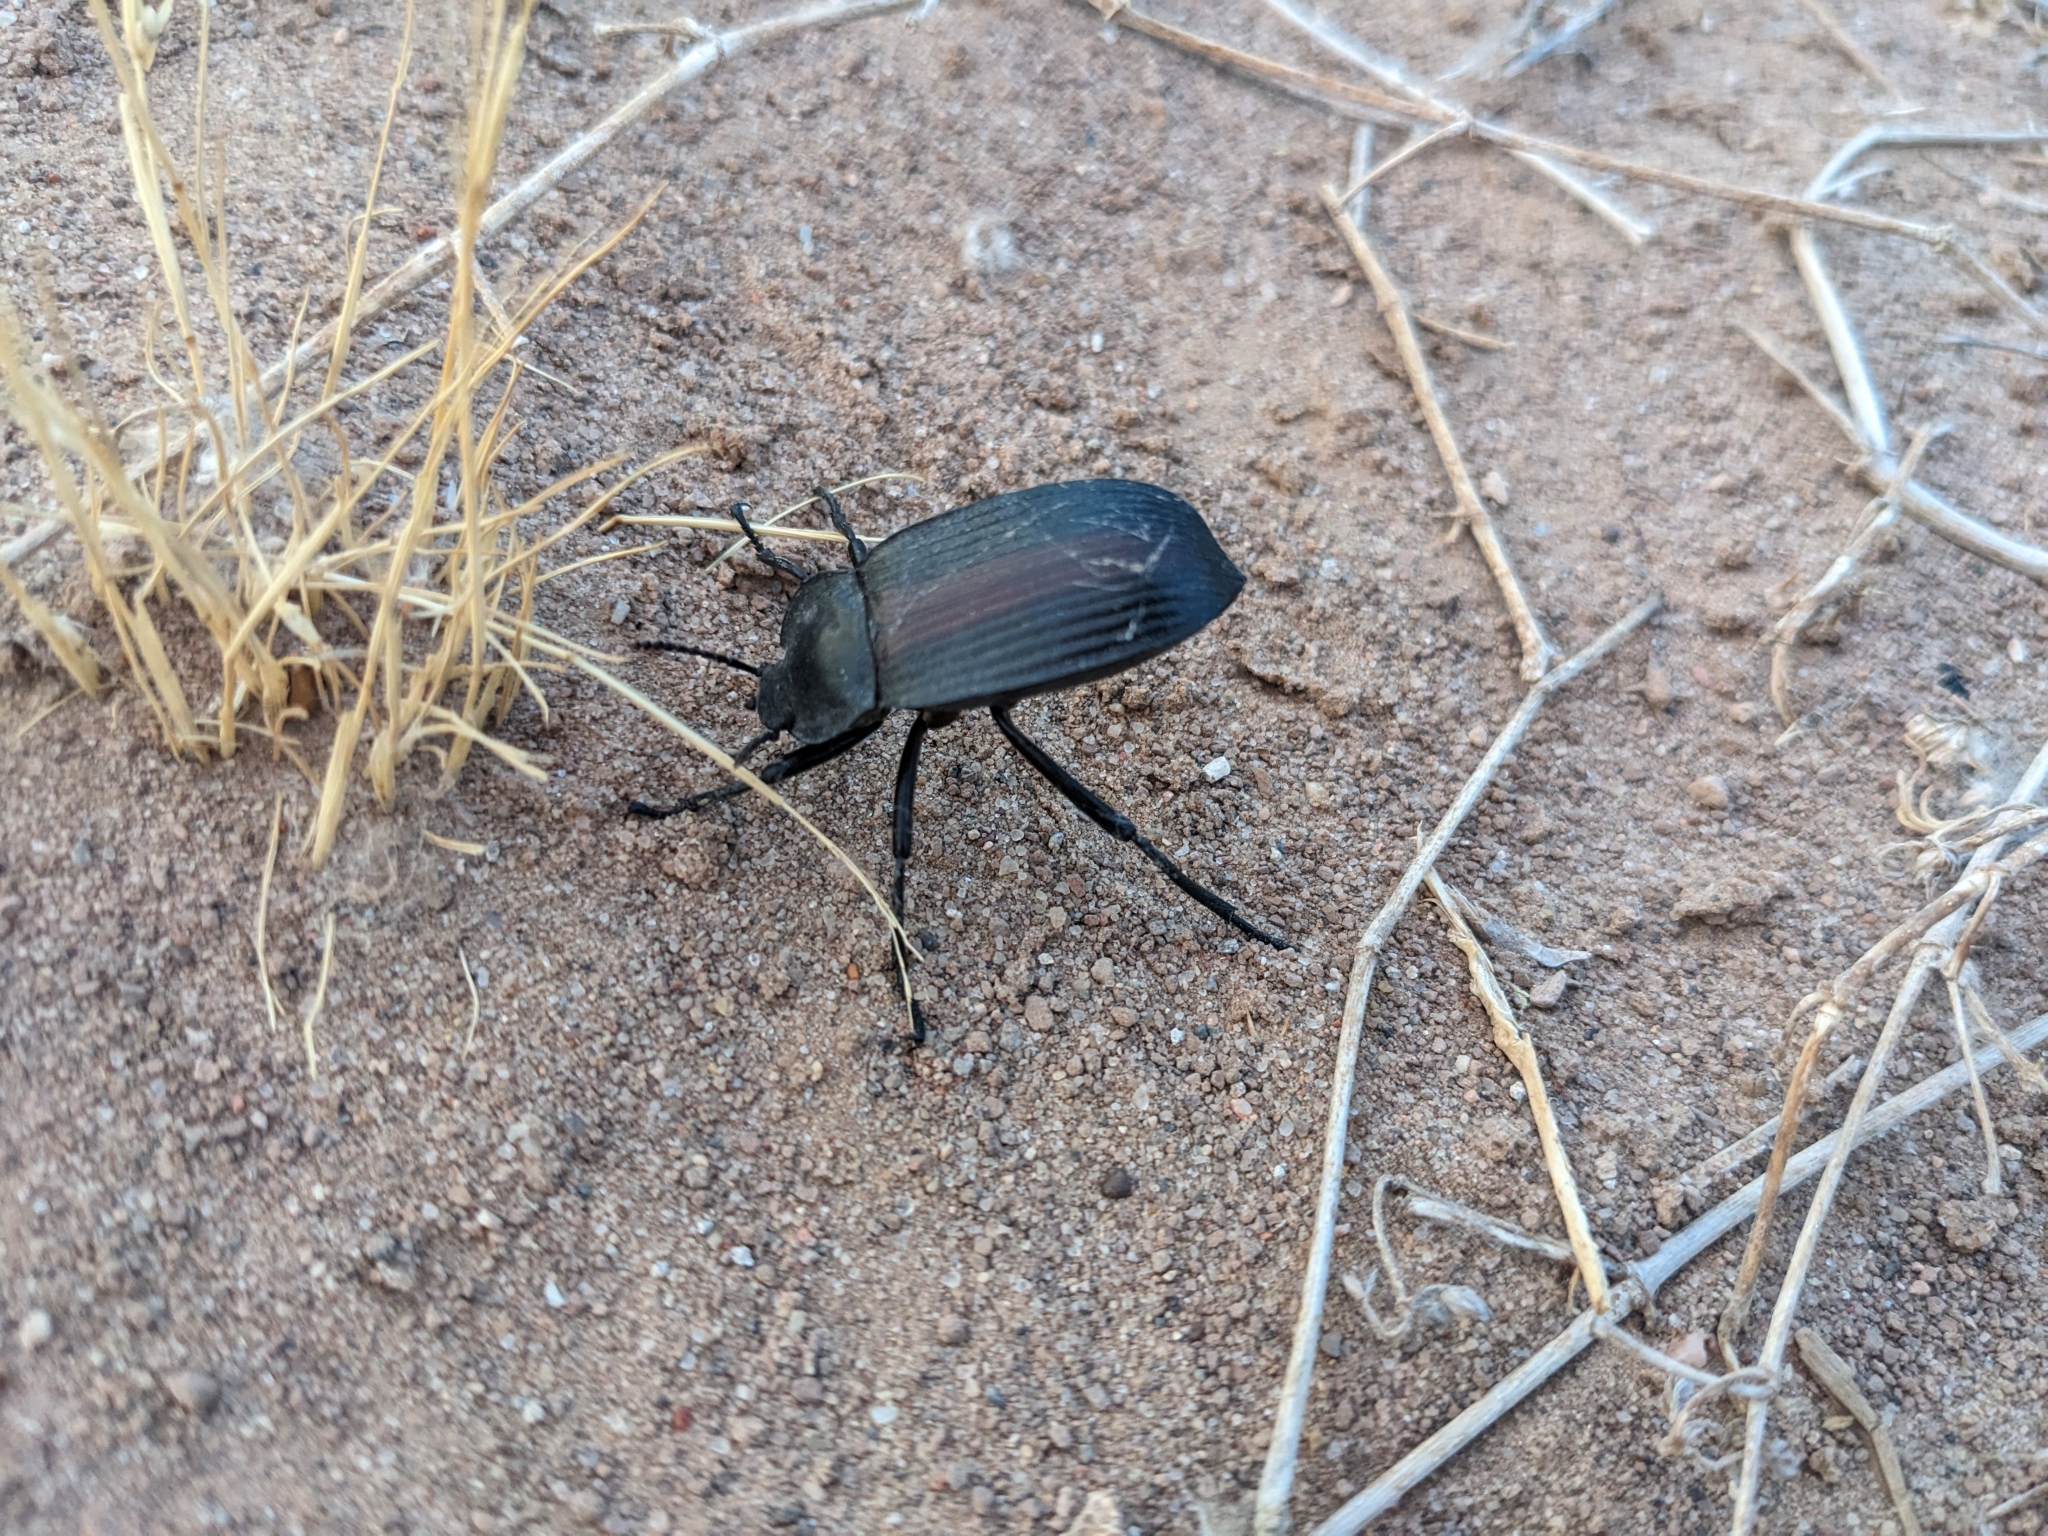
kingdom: Animalia
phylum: Arthropoda
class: Insecta
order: Coleoptera
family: Tenebrionidae
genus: Eleodes
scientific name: Eleodes suturalis
